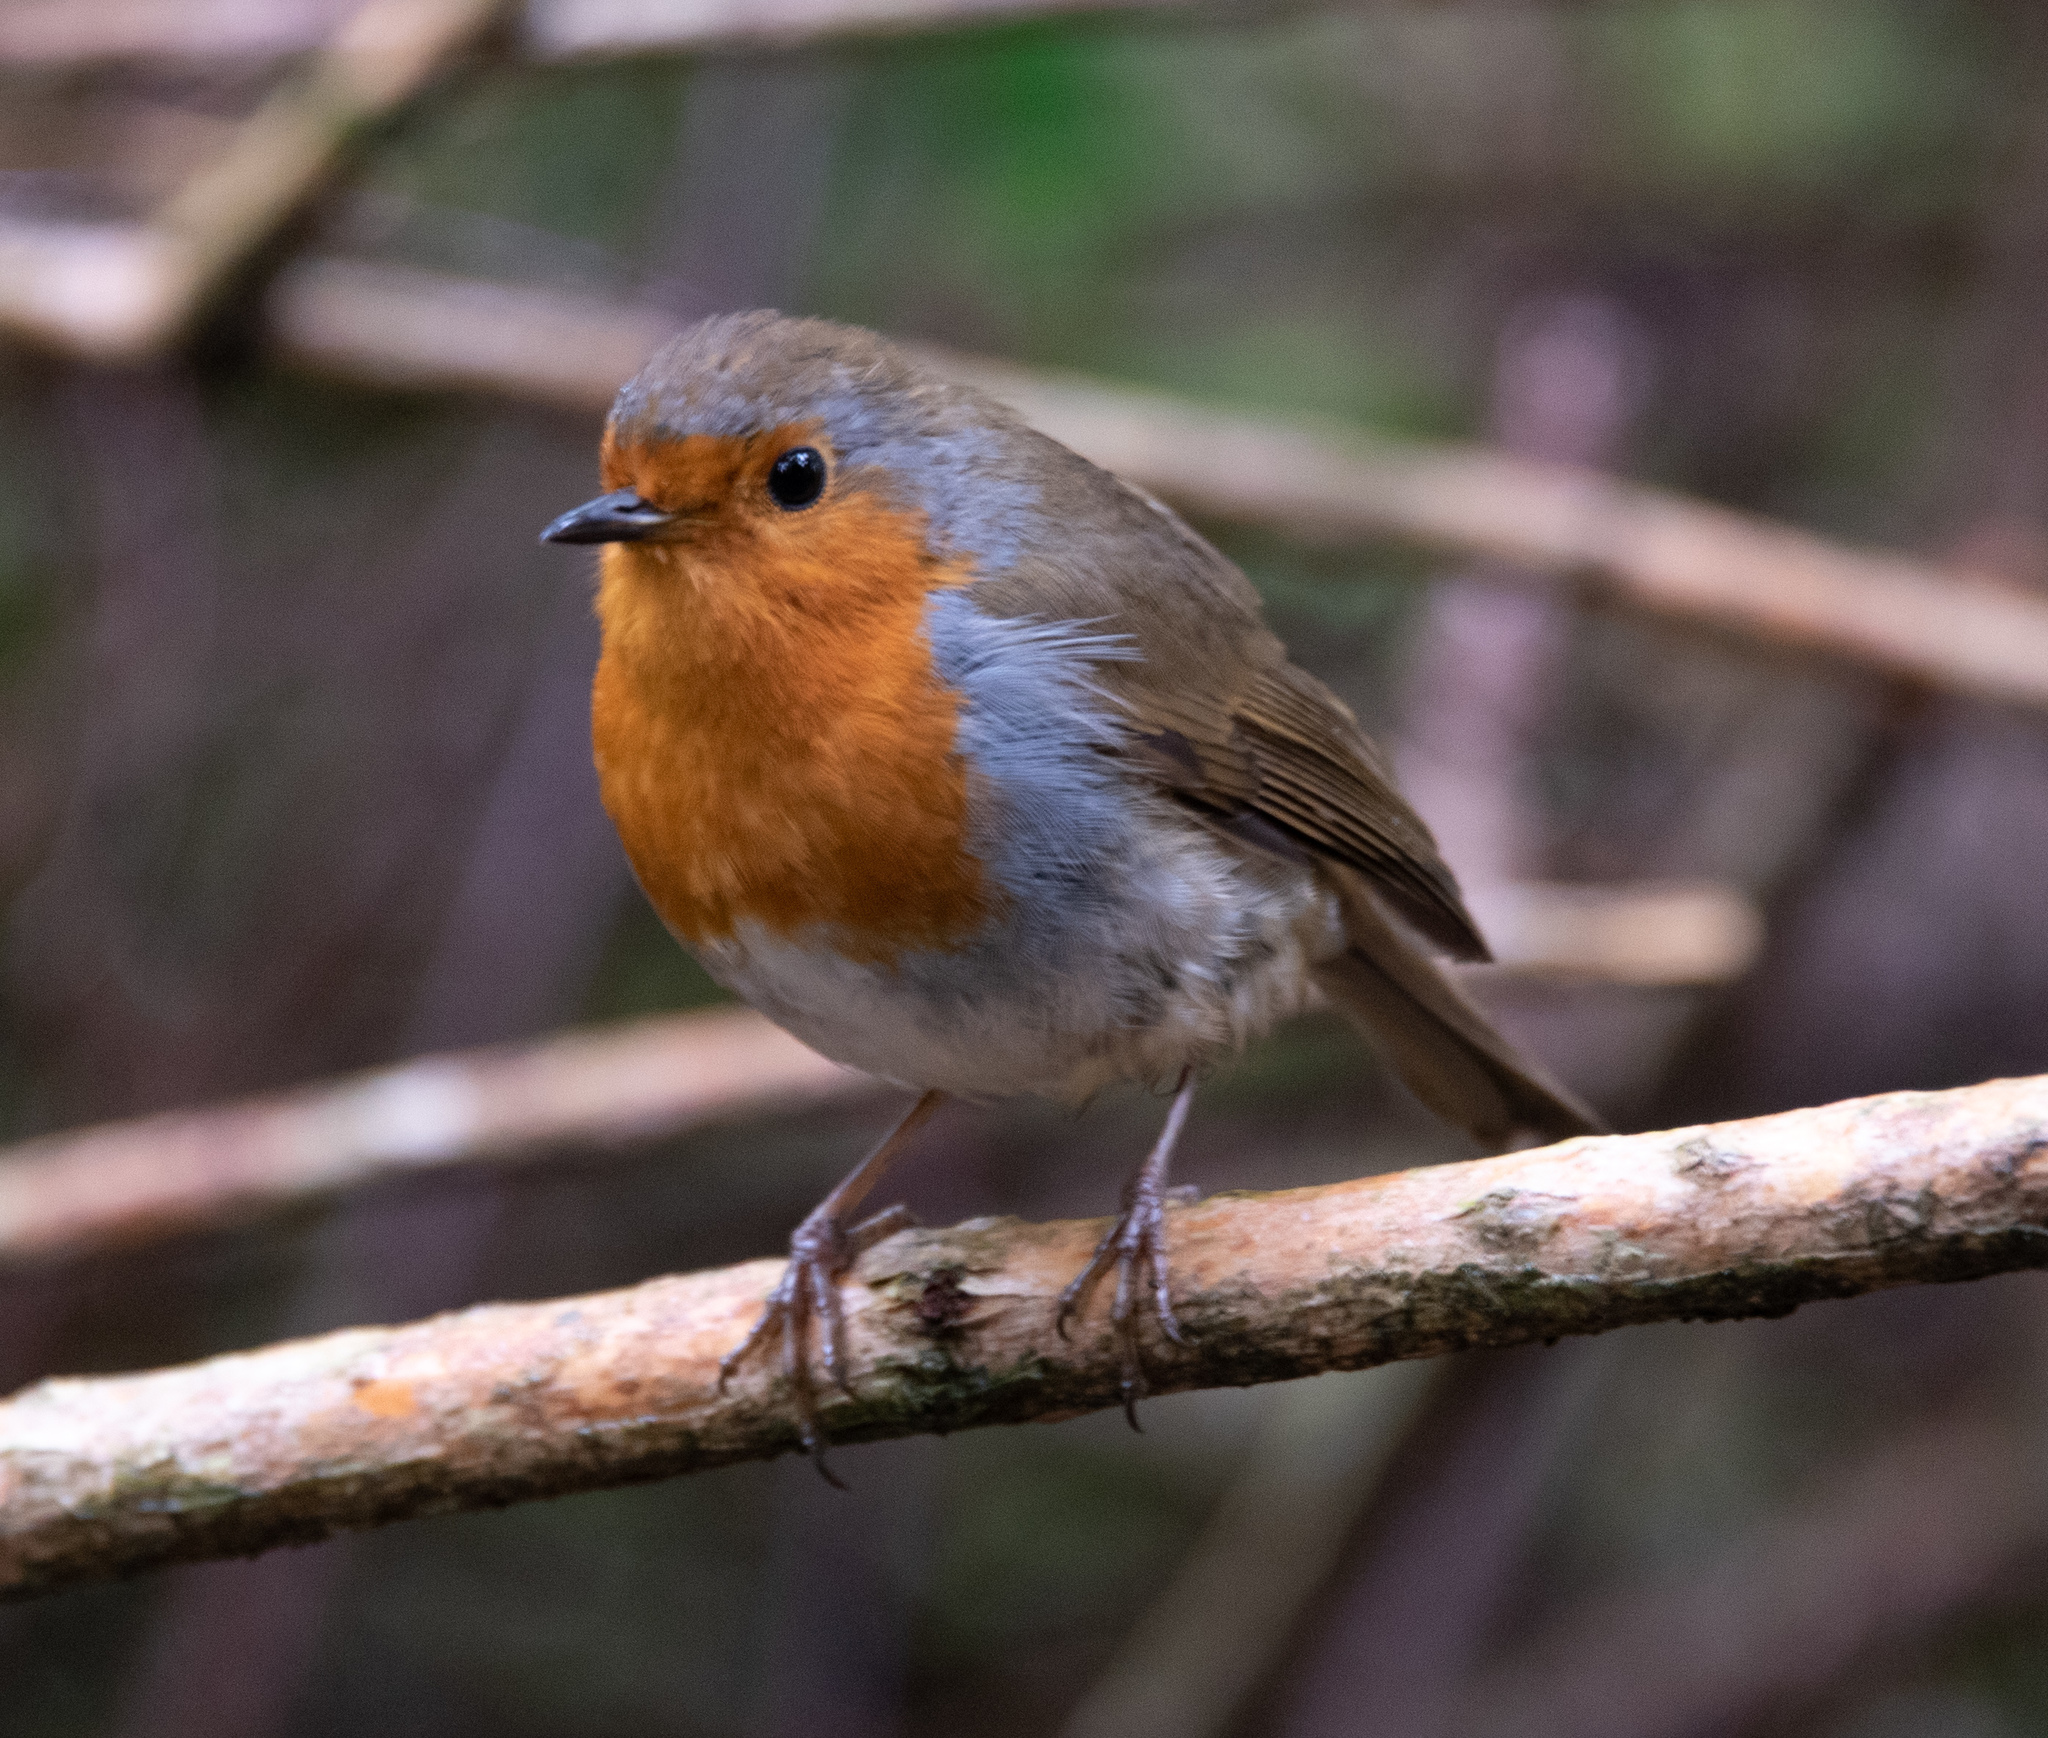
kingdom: Animalia
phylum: Chordata
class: Aves
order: Passeriformes
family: Muscicapidae
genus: Erithacus
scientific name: Erithacus rubecula
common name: European robin
